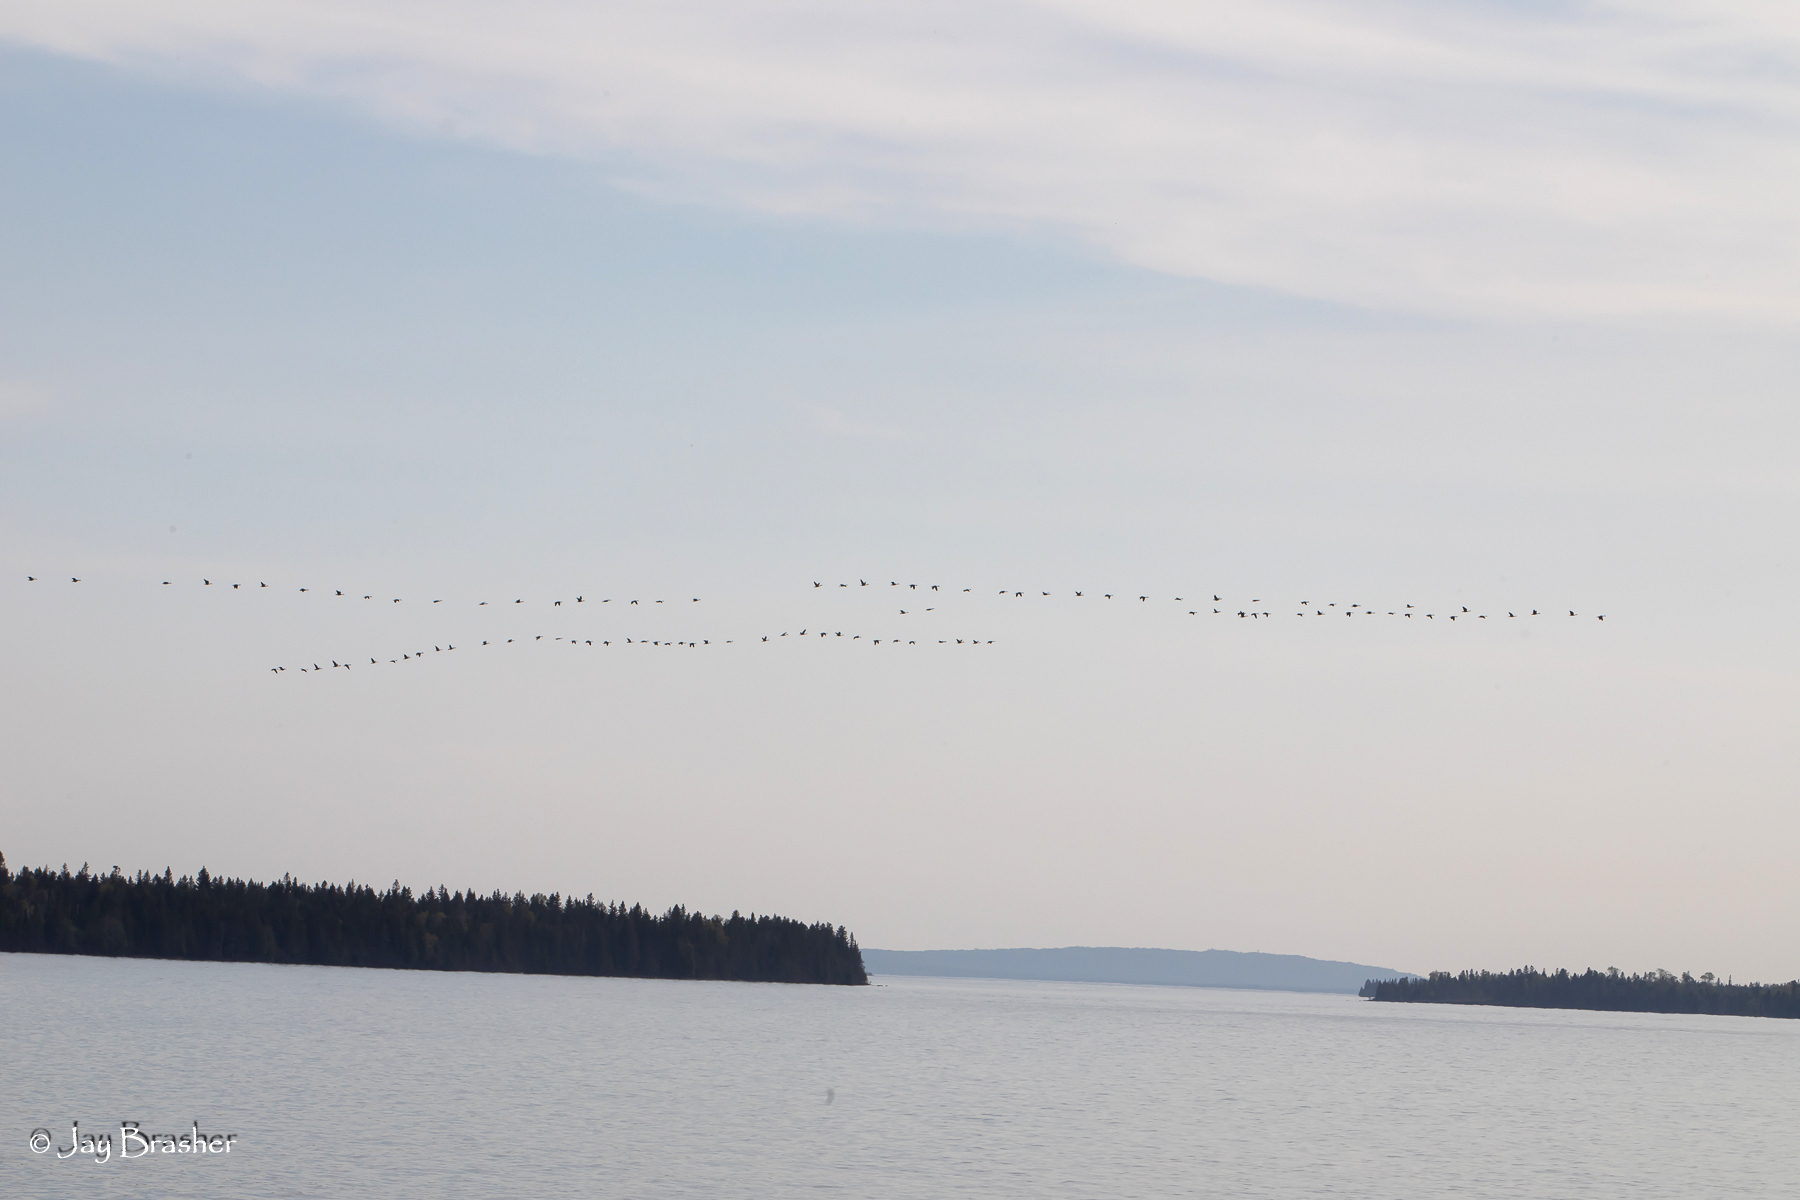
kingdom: Animalia
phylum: Chordata
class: Aves
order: Anseriformes
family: Anatidae
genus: Branta
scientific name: Branta canadensis
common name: Canada goose
